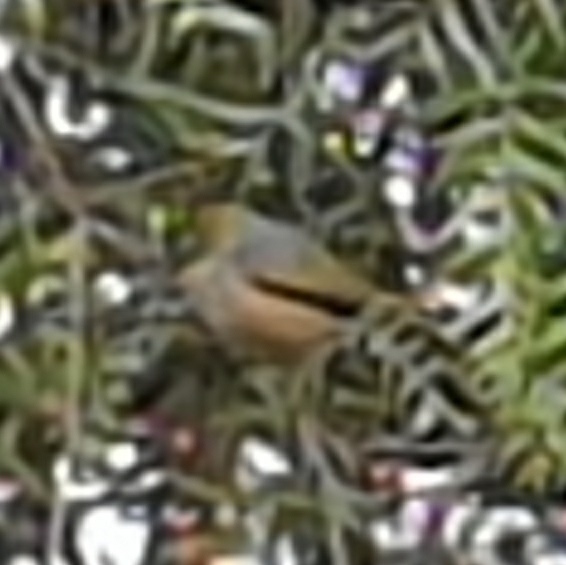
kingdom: Animalia
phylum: Chordata
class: Aves
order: Passeriformes
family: Zosteropidae
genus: Zosterops
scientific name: Zosterops lateralis
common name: Silvereye
